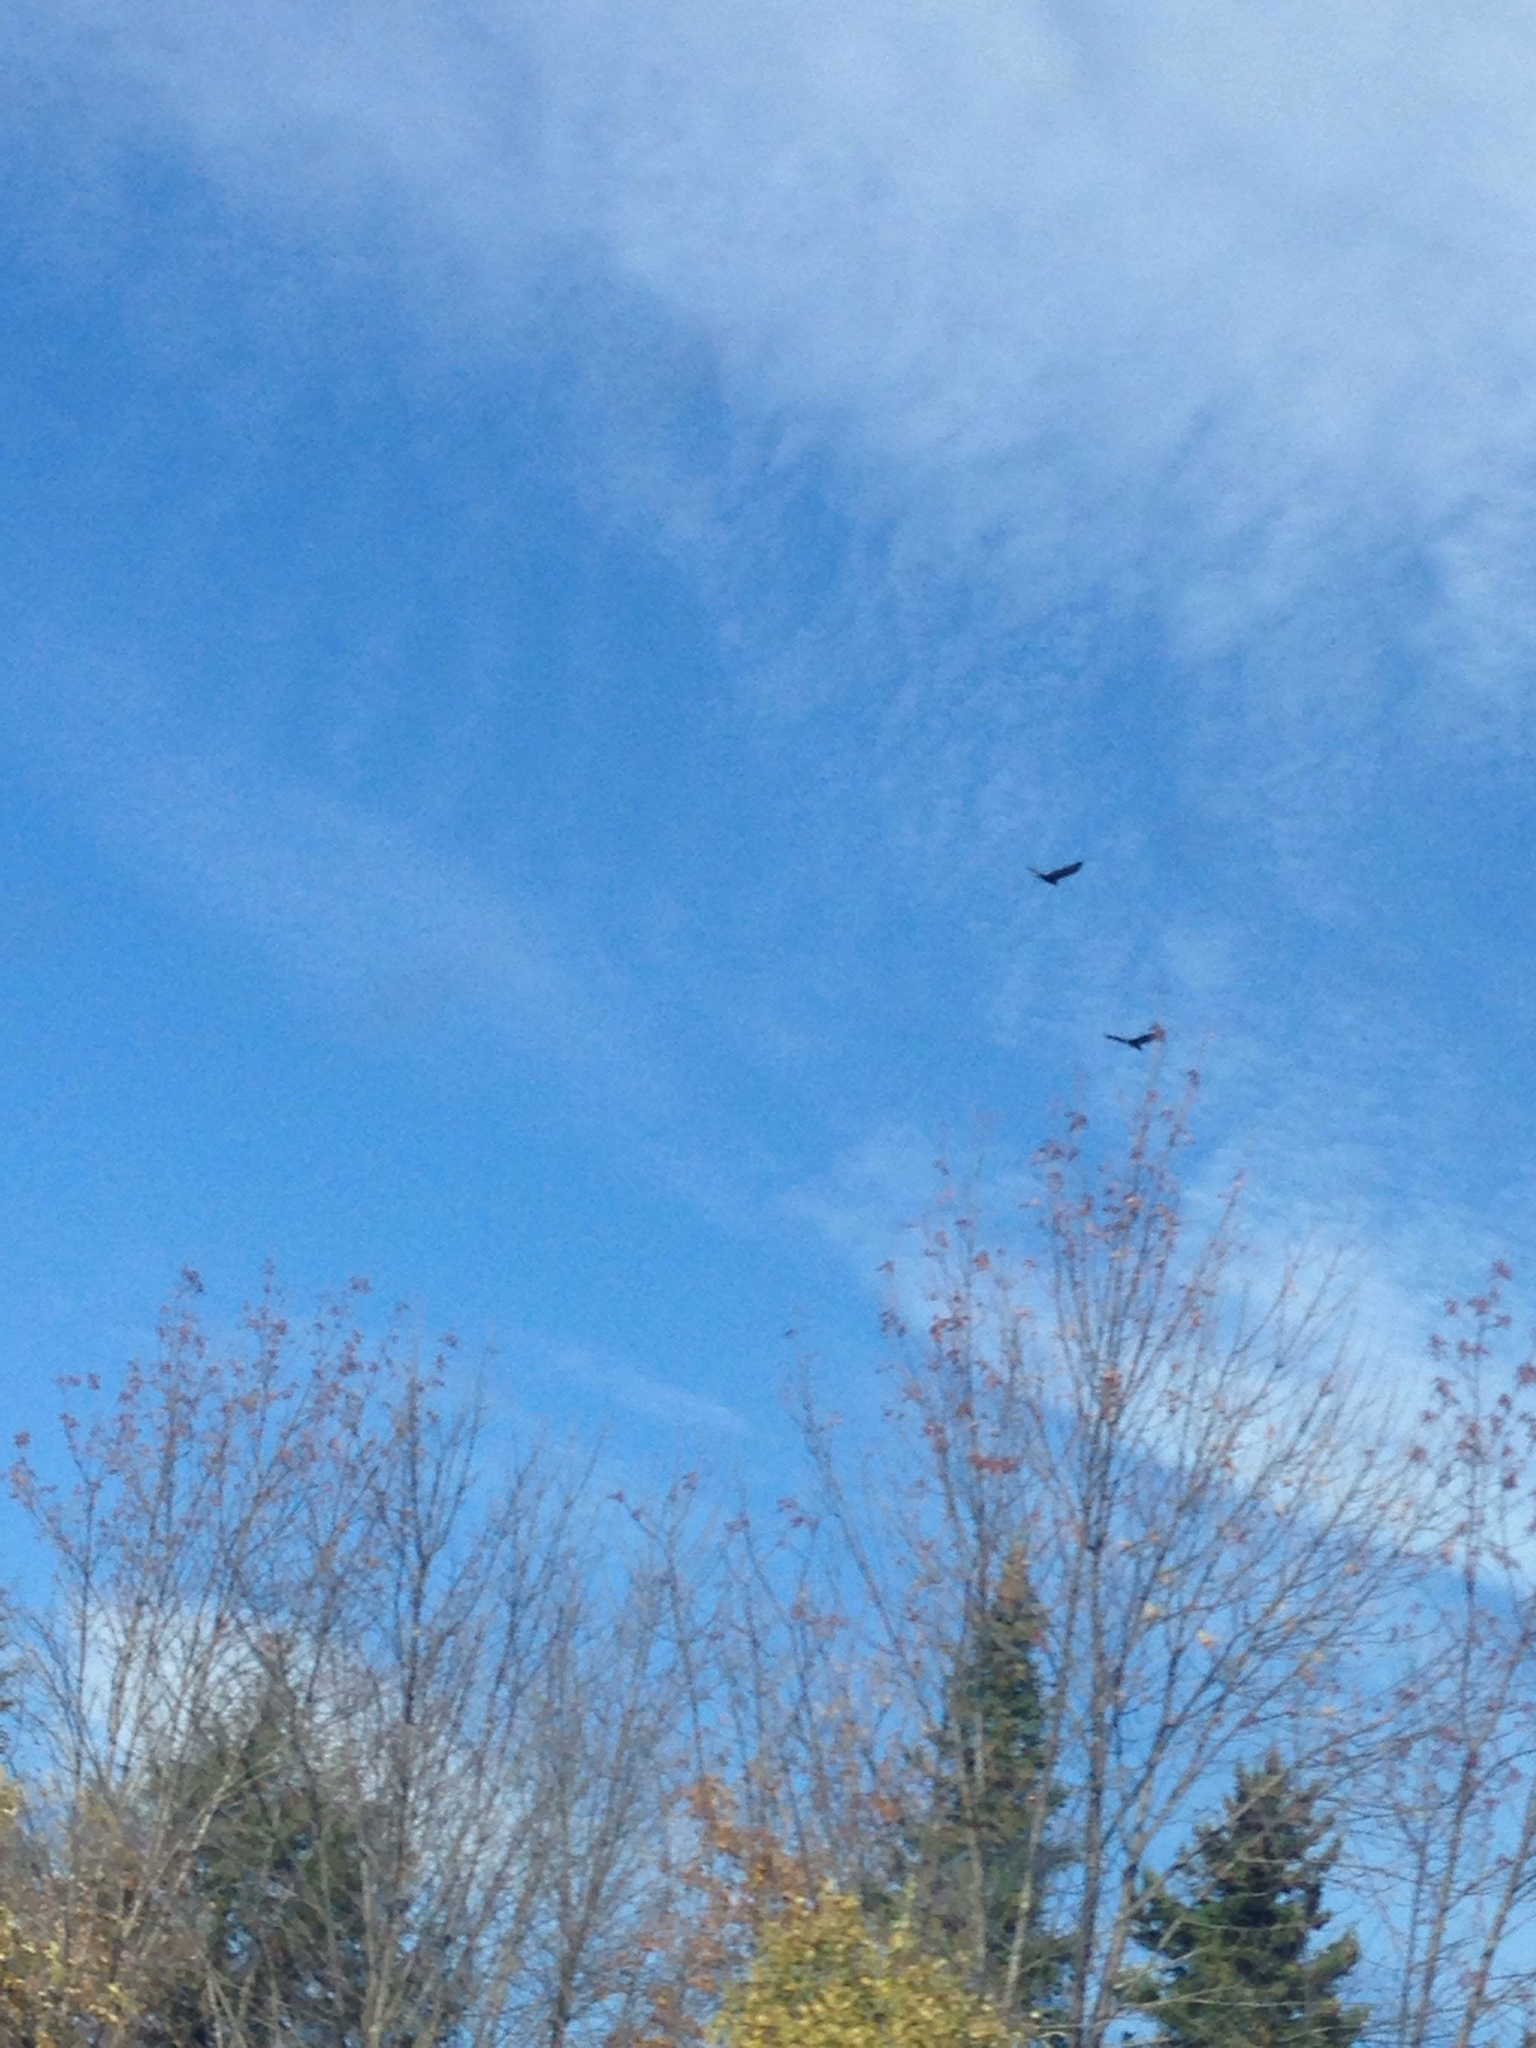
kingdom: Animalia
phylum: Chordata
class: Aves
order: Accipitriformes
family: Cathartidae
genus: Cathartes
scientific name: Cathartes aura
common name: Turkey vulture
